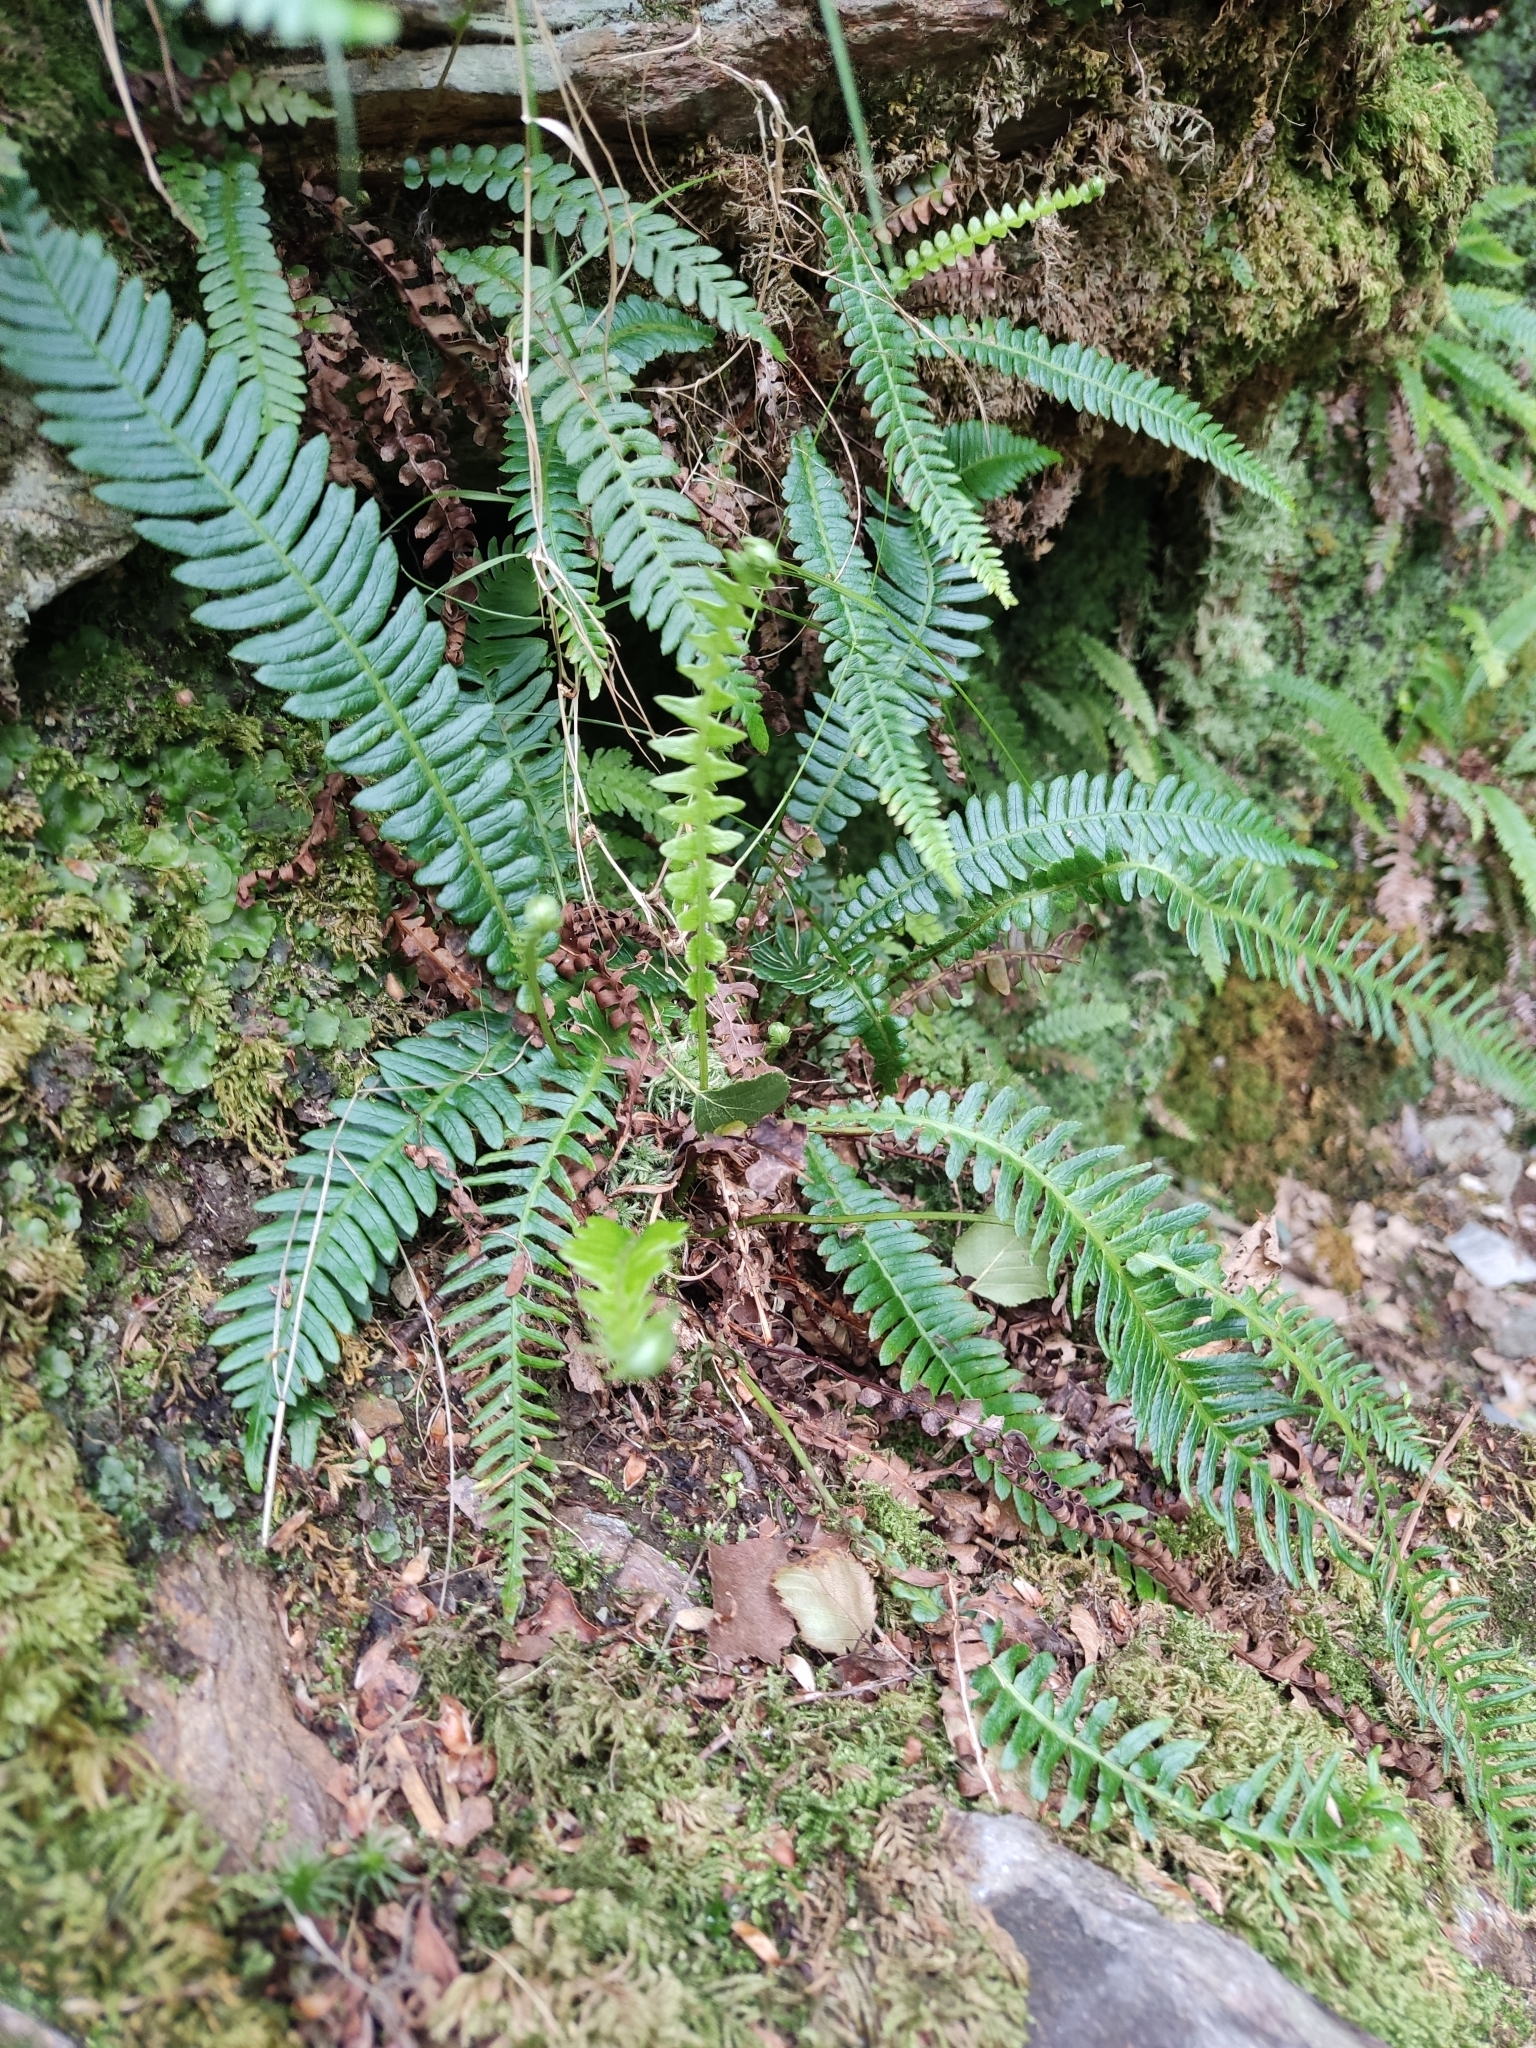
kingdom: Plantae
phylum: Tracheophyta
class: Polypodiopsida
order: Polypodiales
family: Blechnaceae
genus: Struthiopteris
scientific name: Struthiopteris spicant
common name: Deer fern
